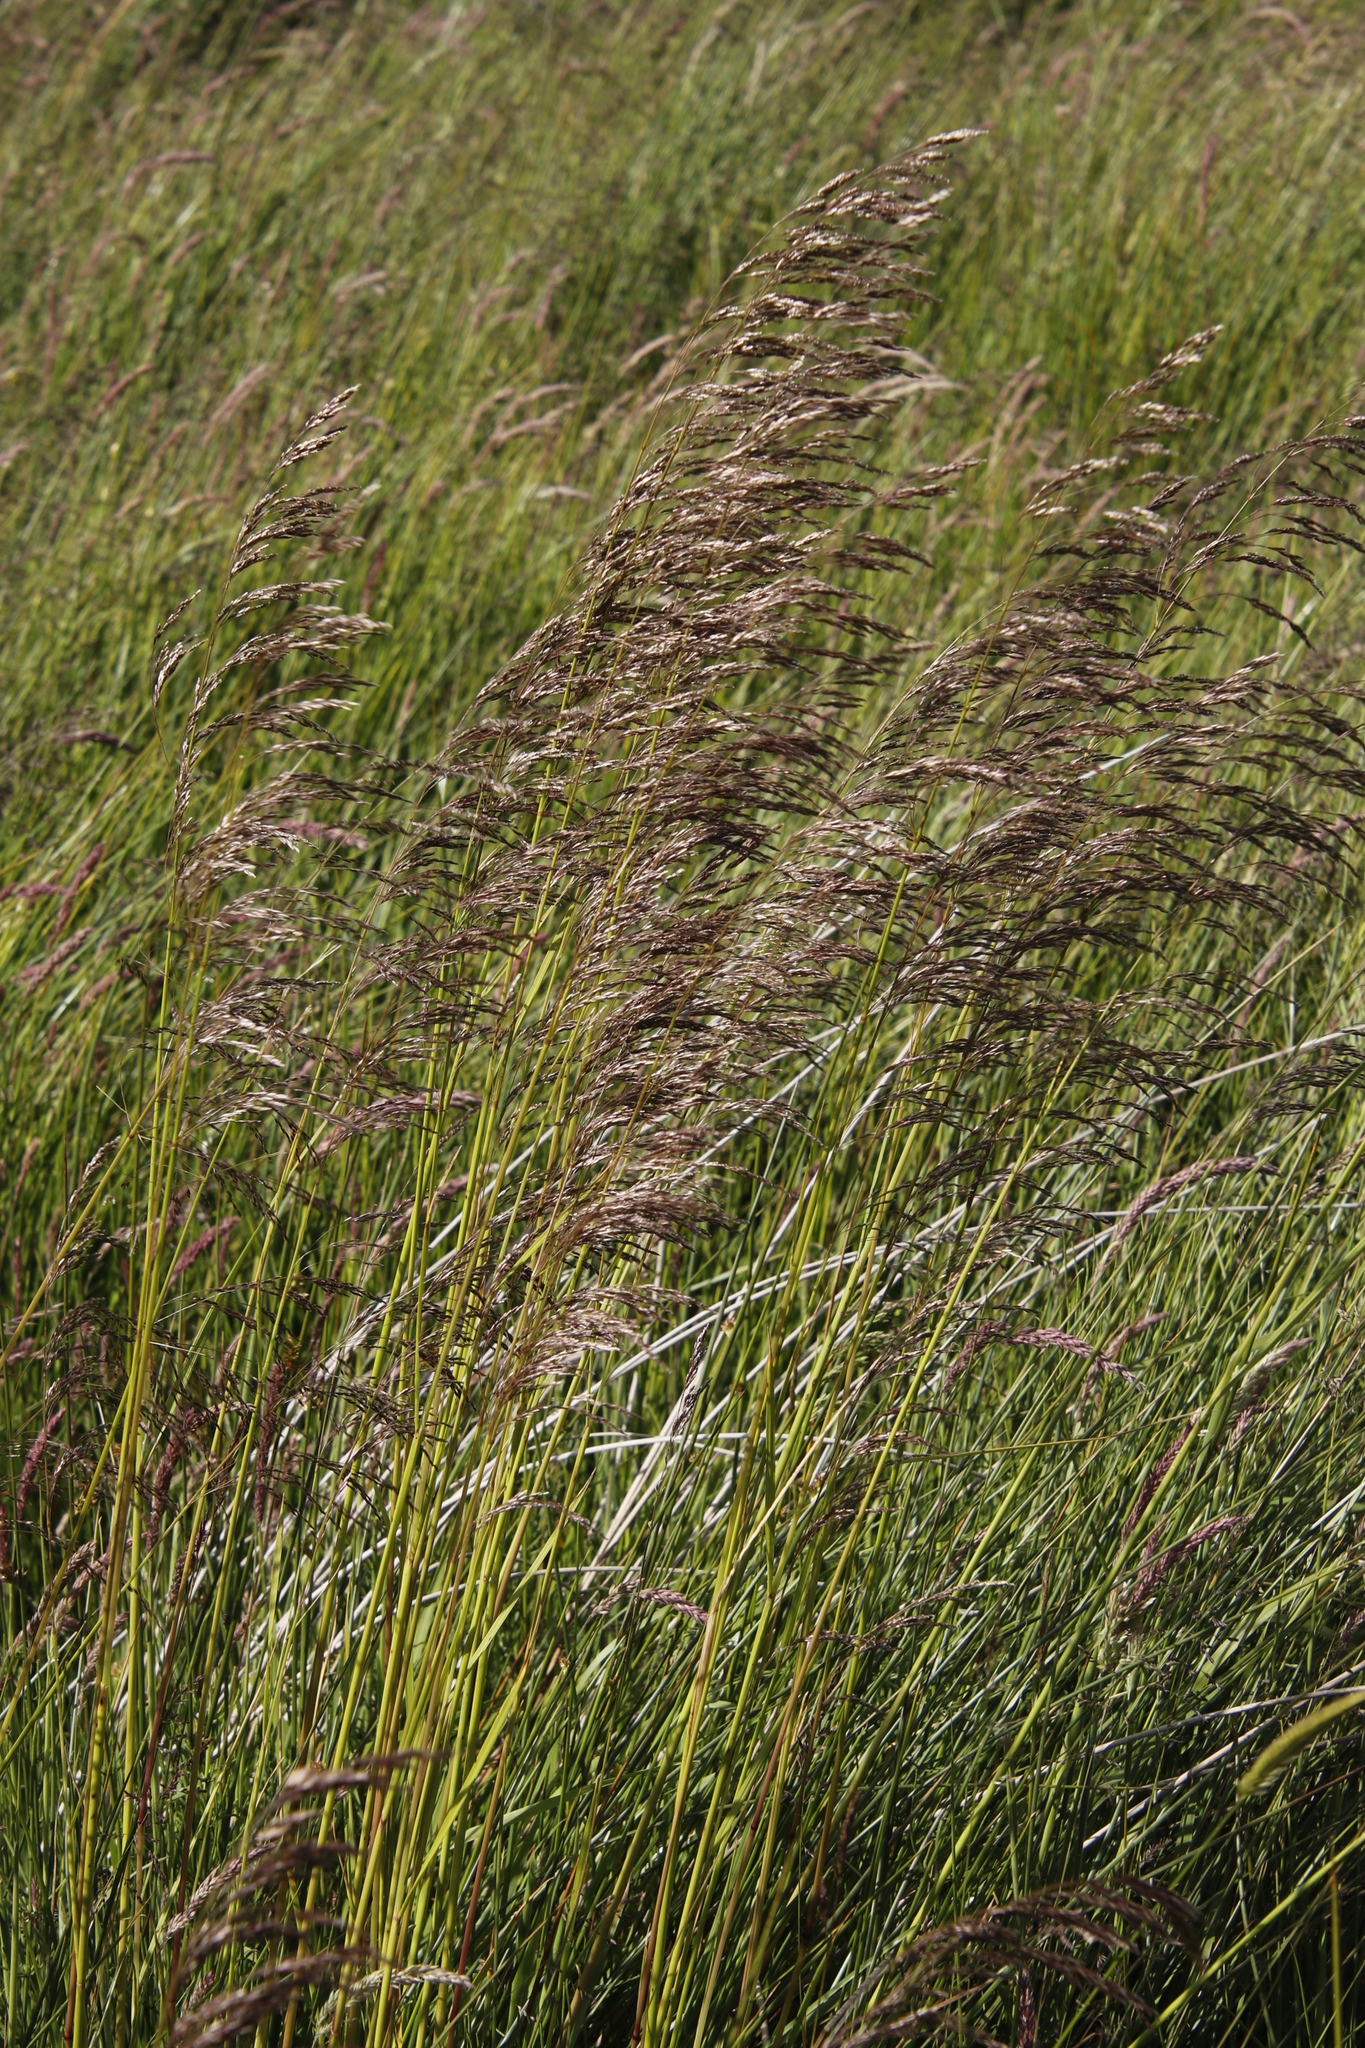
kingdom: Plantae
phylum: Tracheophyta
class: Liliopsida
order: Poales
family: Poaceae
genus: Deschampsia
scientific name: Deschampsia cespitosa
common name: Tufted hair-grass
